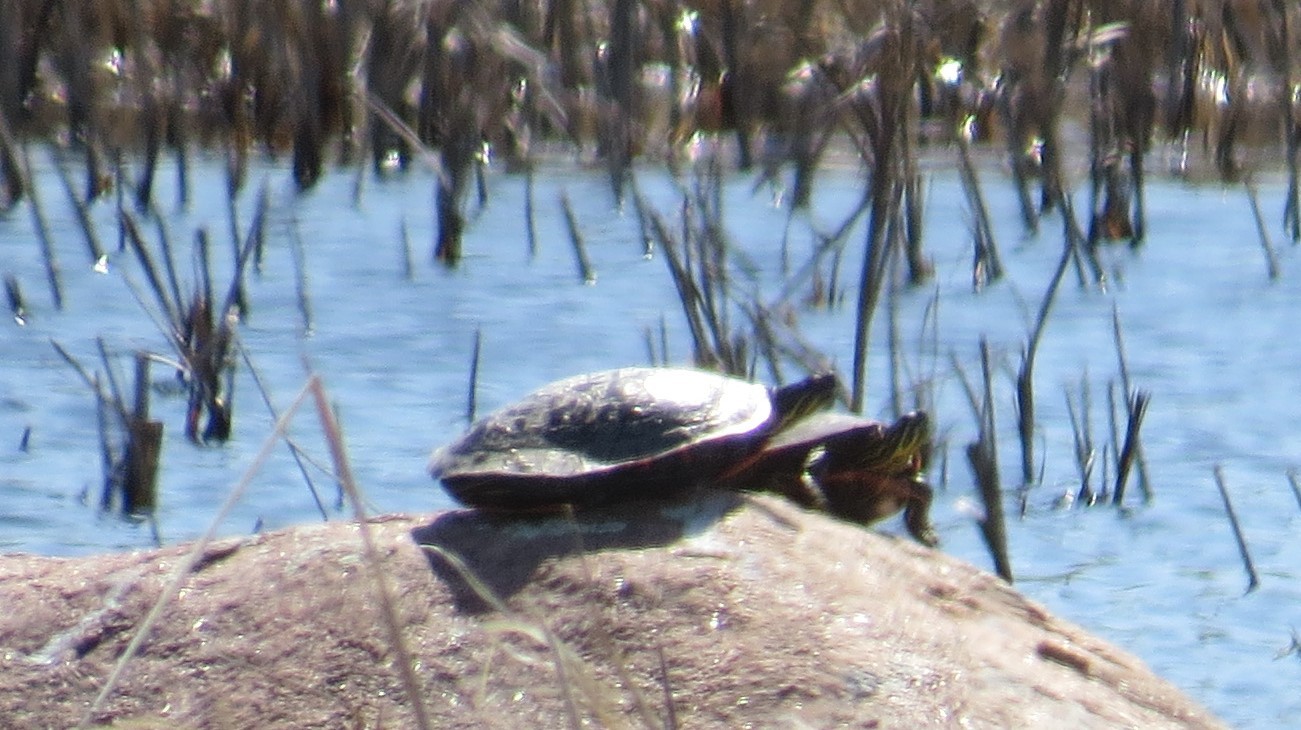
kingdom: Animalia
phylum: Chordata
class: Testudines
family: Emydidae
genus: Chrysemys
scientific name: Chrysemys picta
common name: Painted turtle
